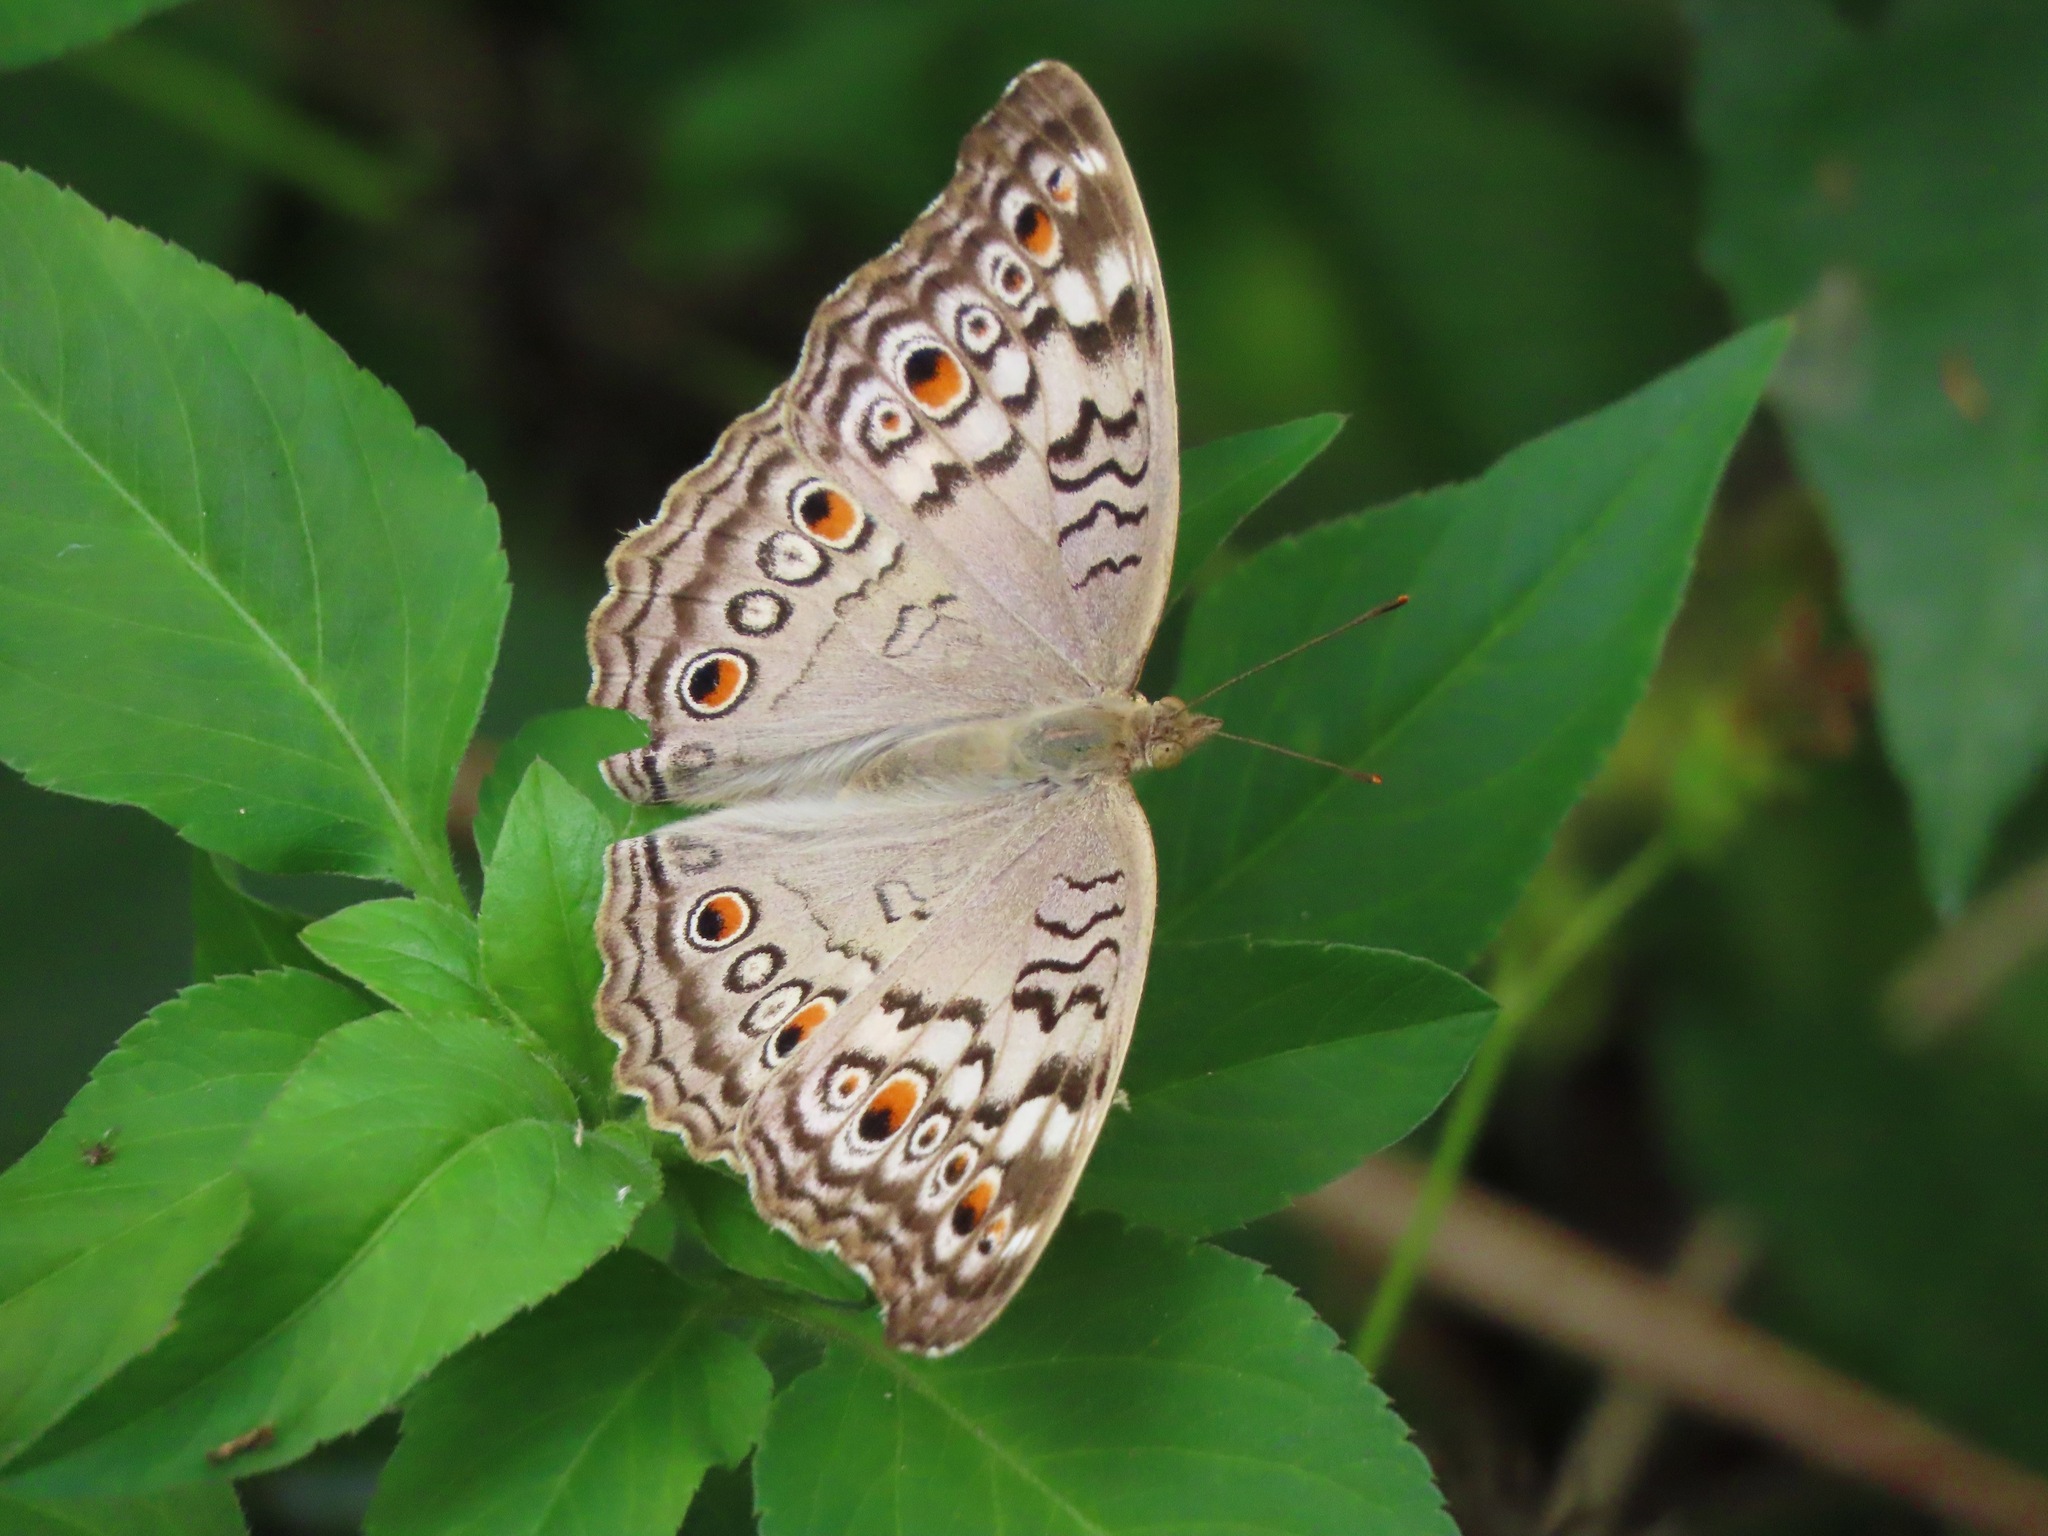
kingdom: Animalia
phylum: Arthropoda
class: Insecta
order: Lepidoptera
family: Nymphalidae
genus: Junonia
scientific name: Junonia atlites
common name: Grey pansy
